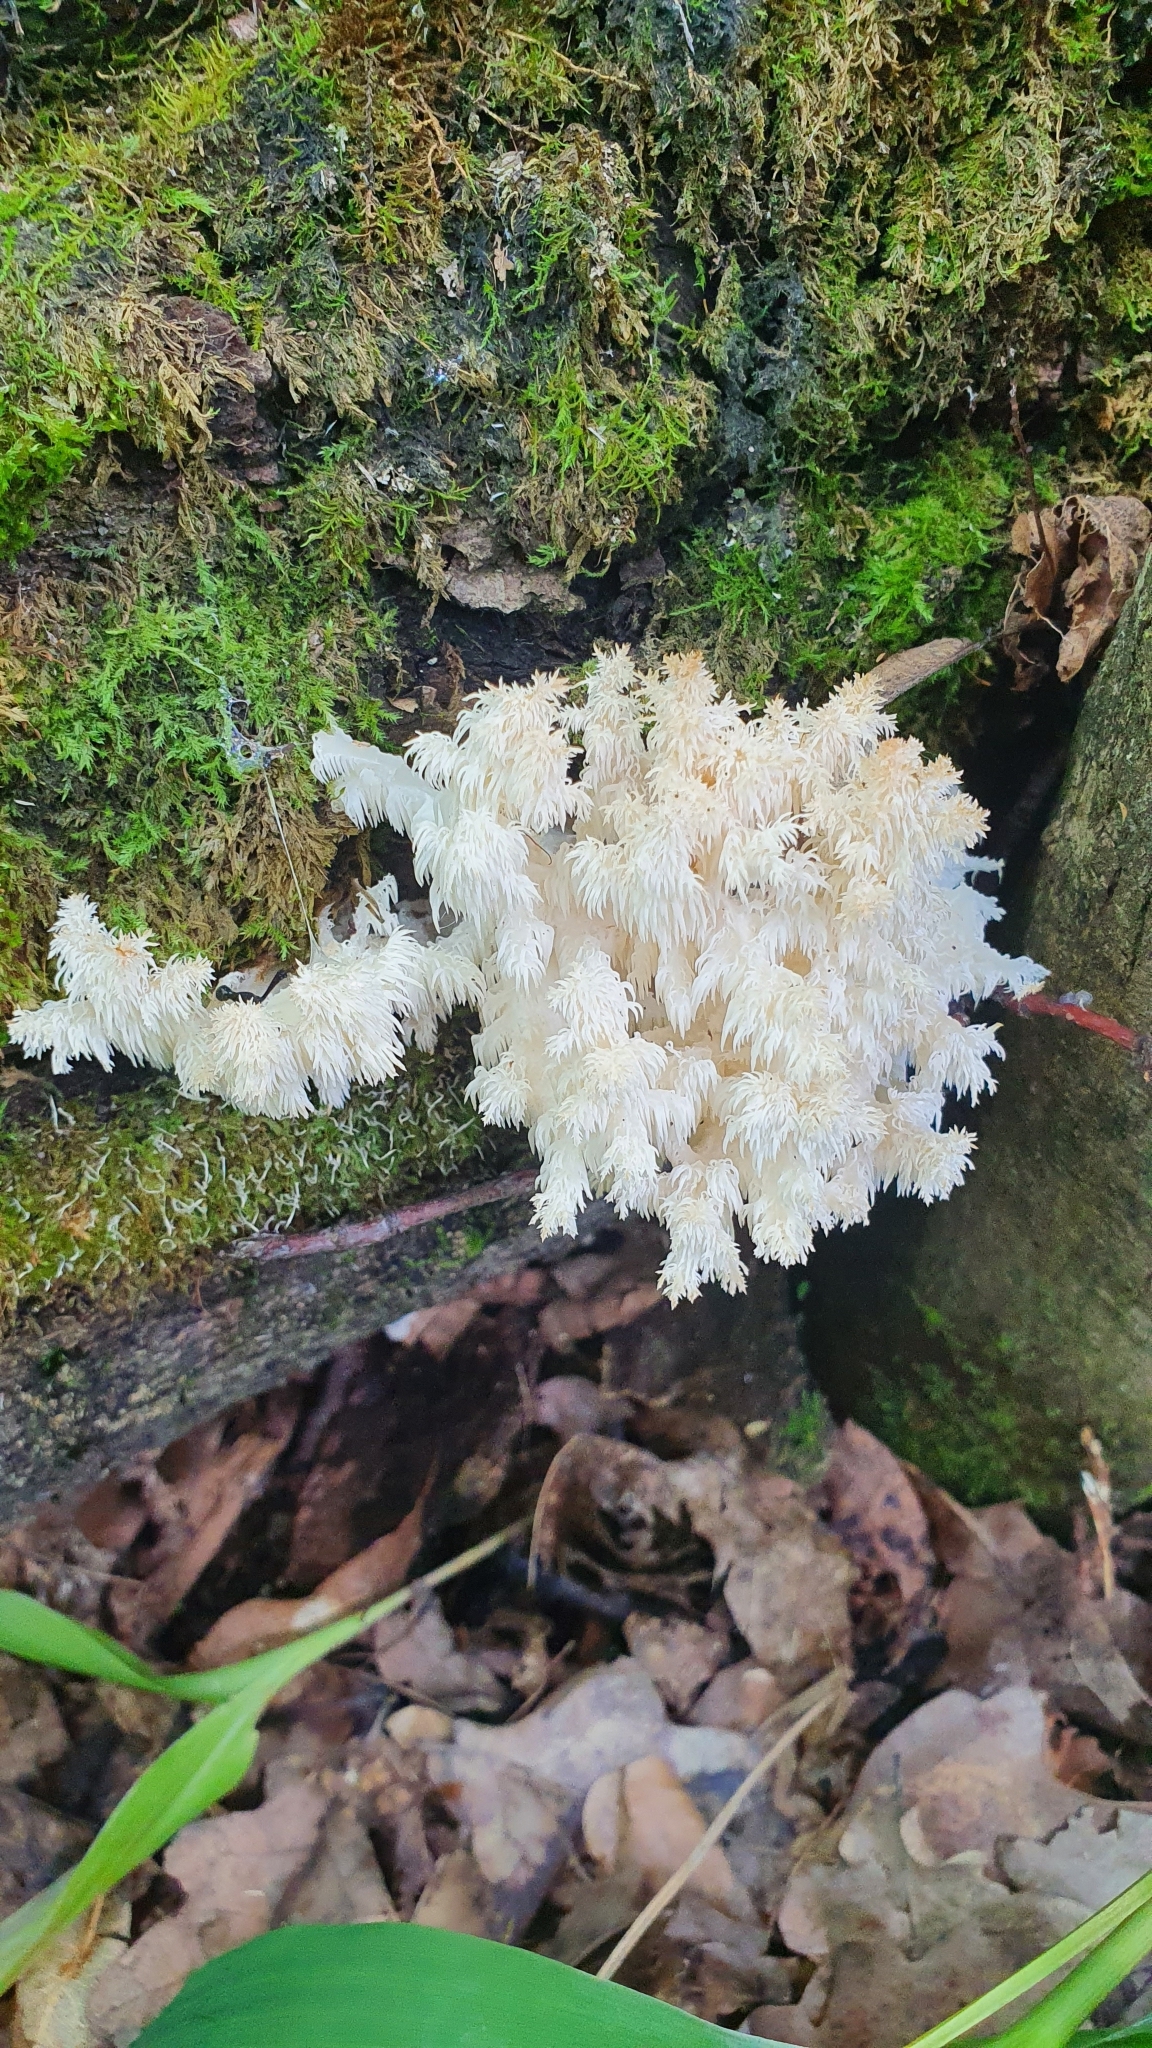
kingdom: Fungi
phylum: Basidiomycota
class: Agaricomycetes
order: Russulales
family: Hericiaceae
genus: Hericium
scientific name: Hericium coralloides
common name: Coral tooth
